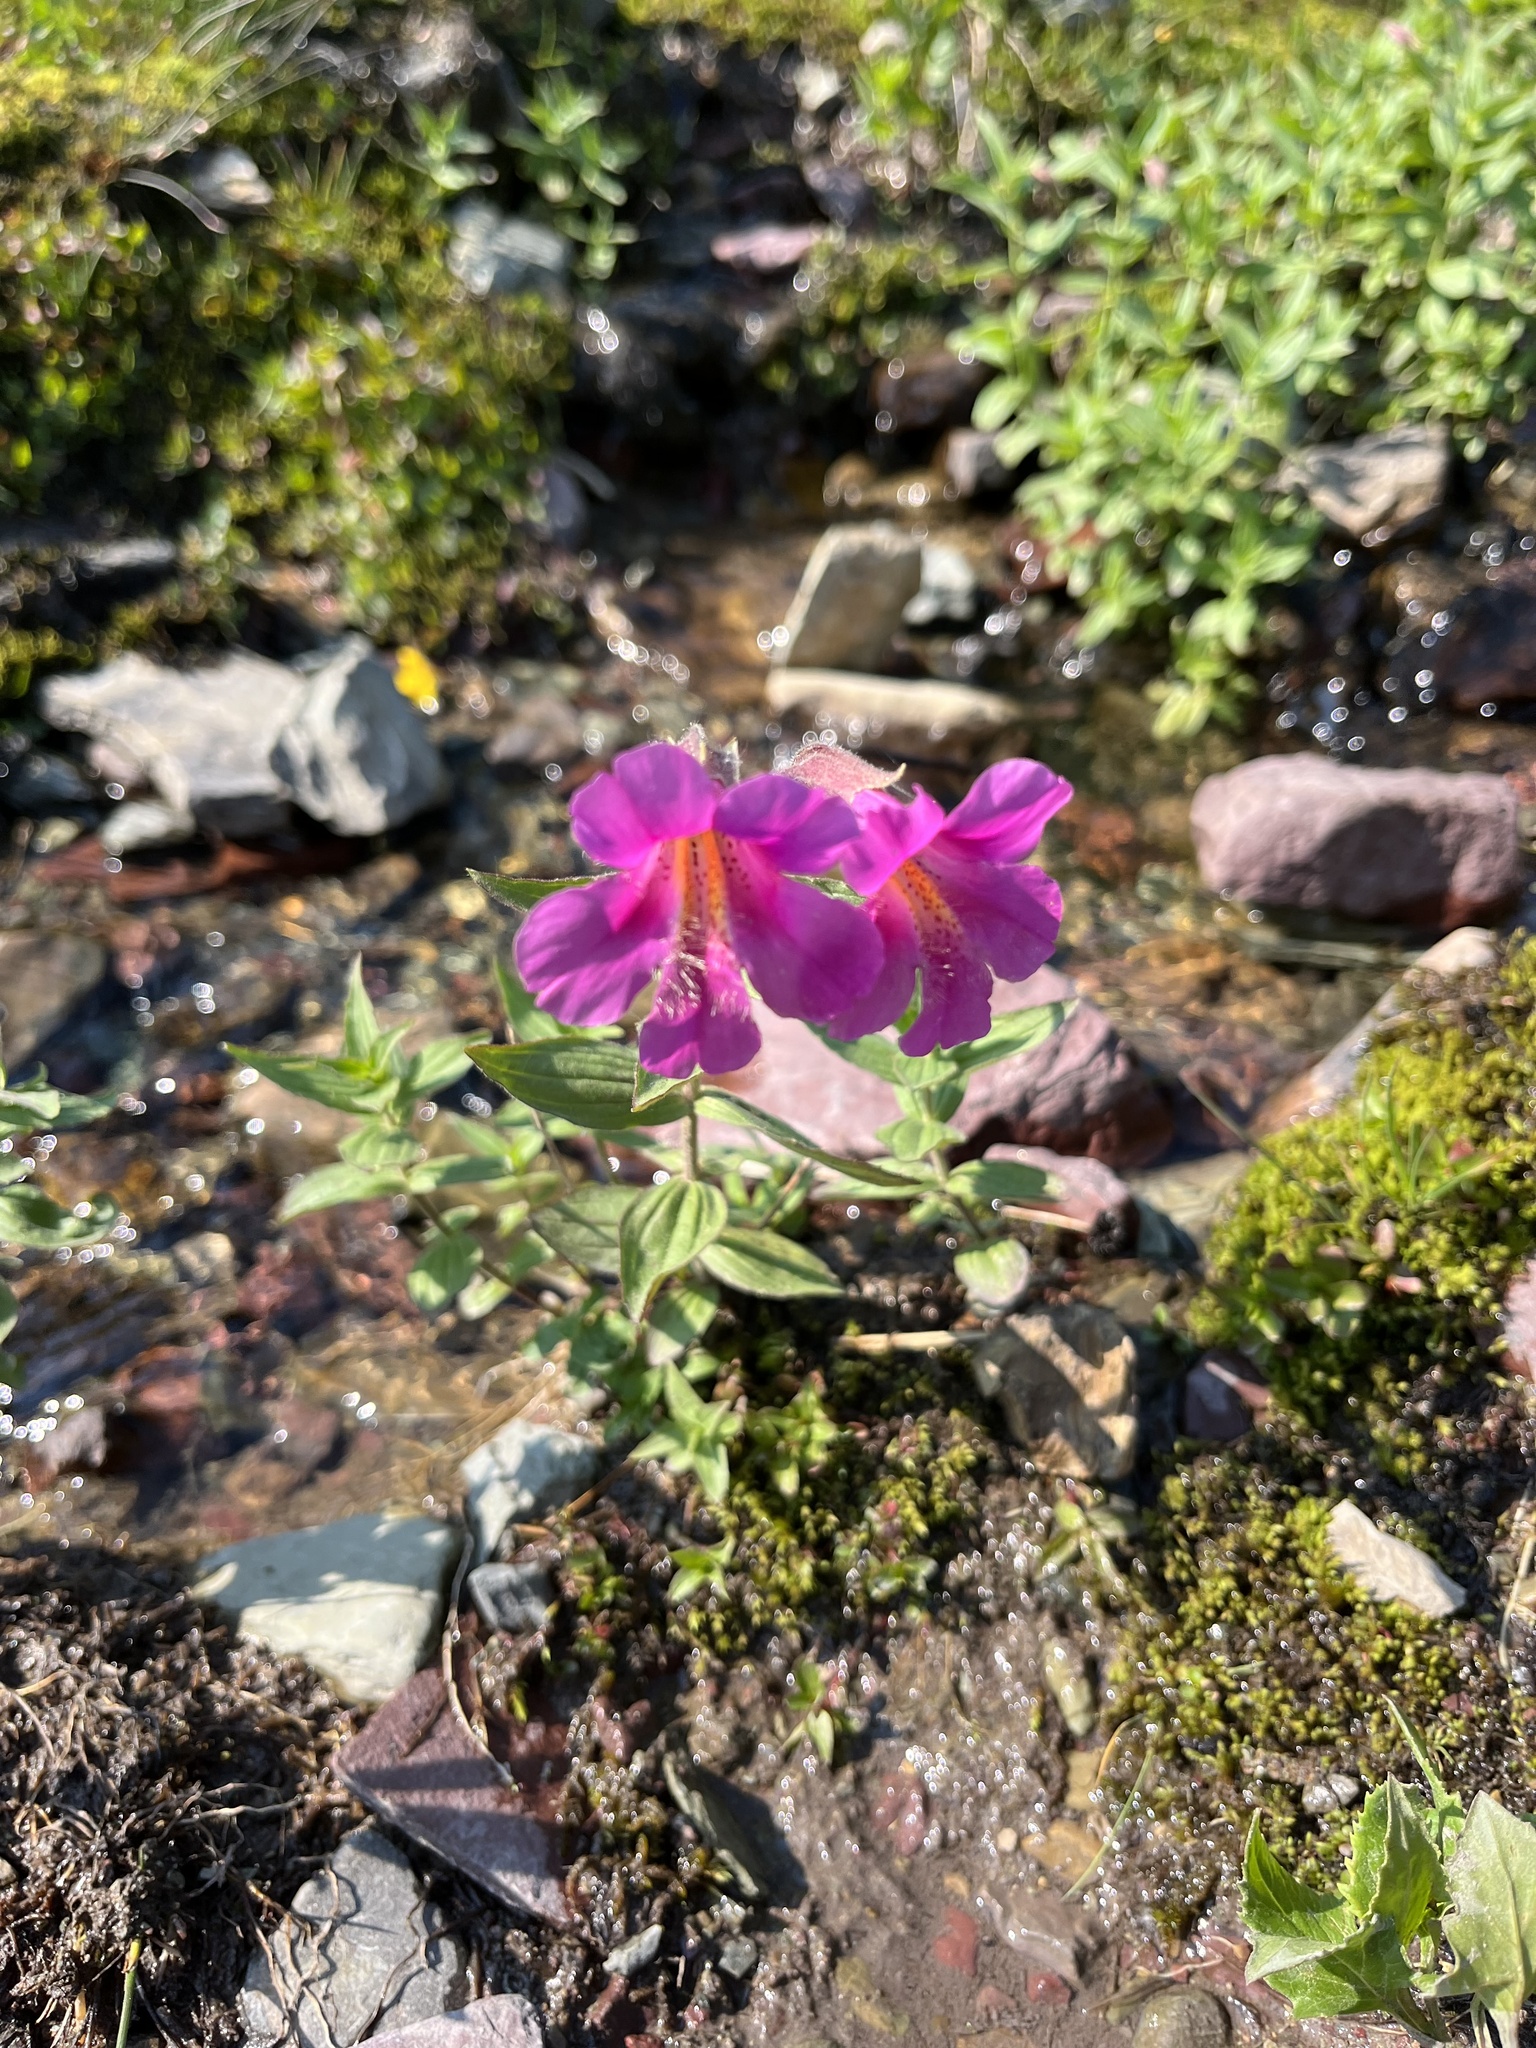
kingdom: Plantae
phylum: Tracheophyta
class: Magnoliopsida
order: Lamiales
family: Phrymaceae
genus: Erythranthe
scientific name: Erythranthe lewisii
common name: Lewis's monkey-flower
